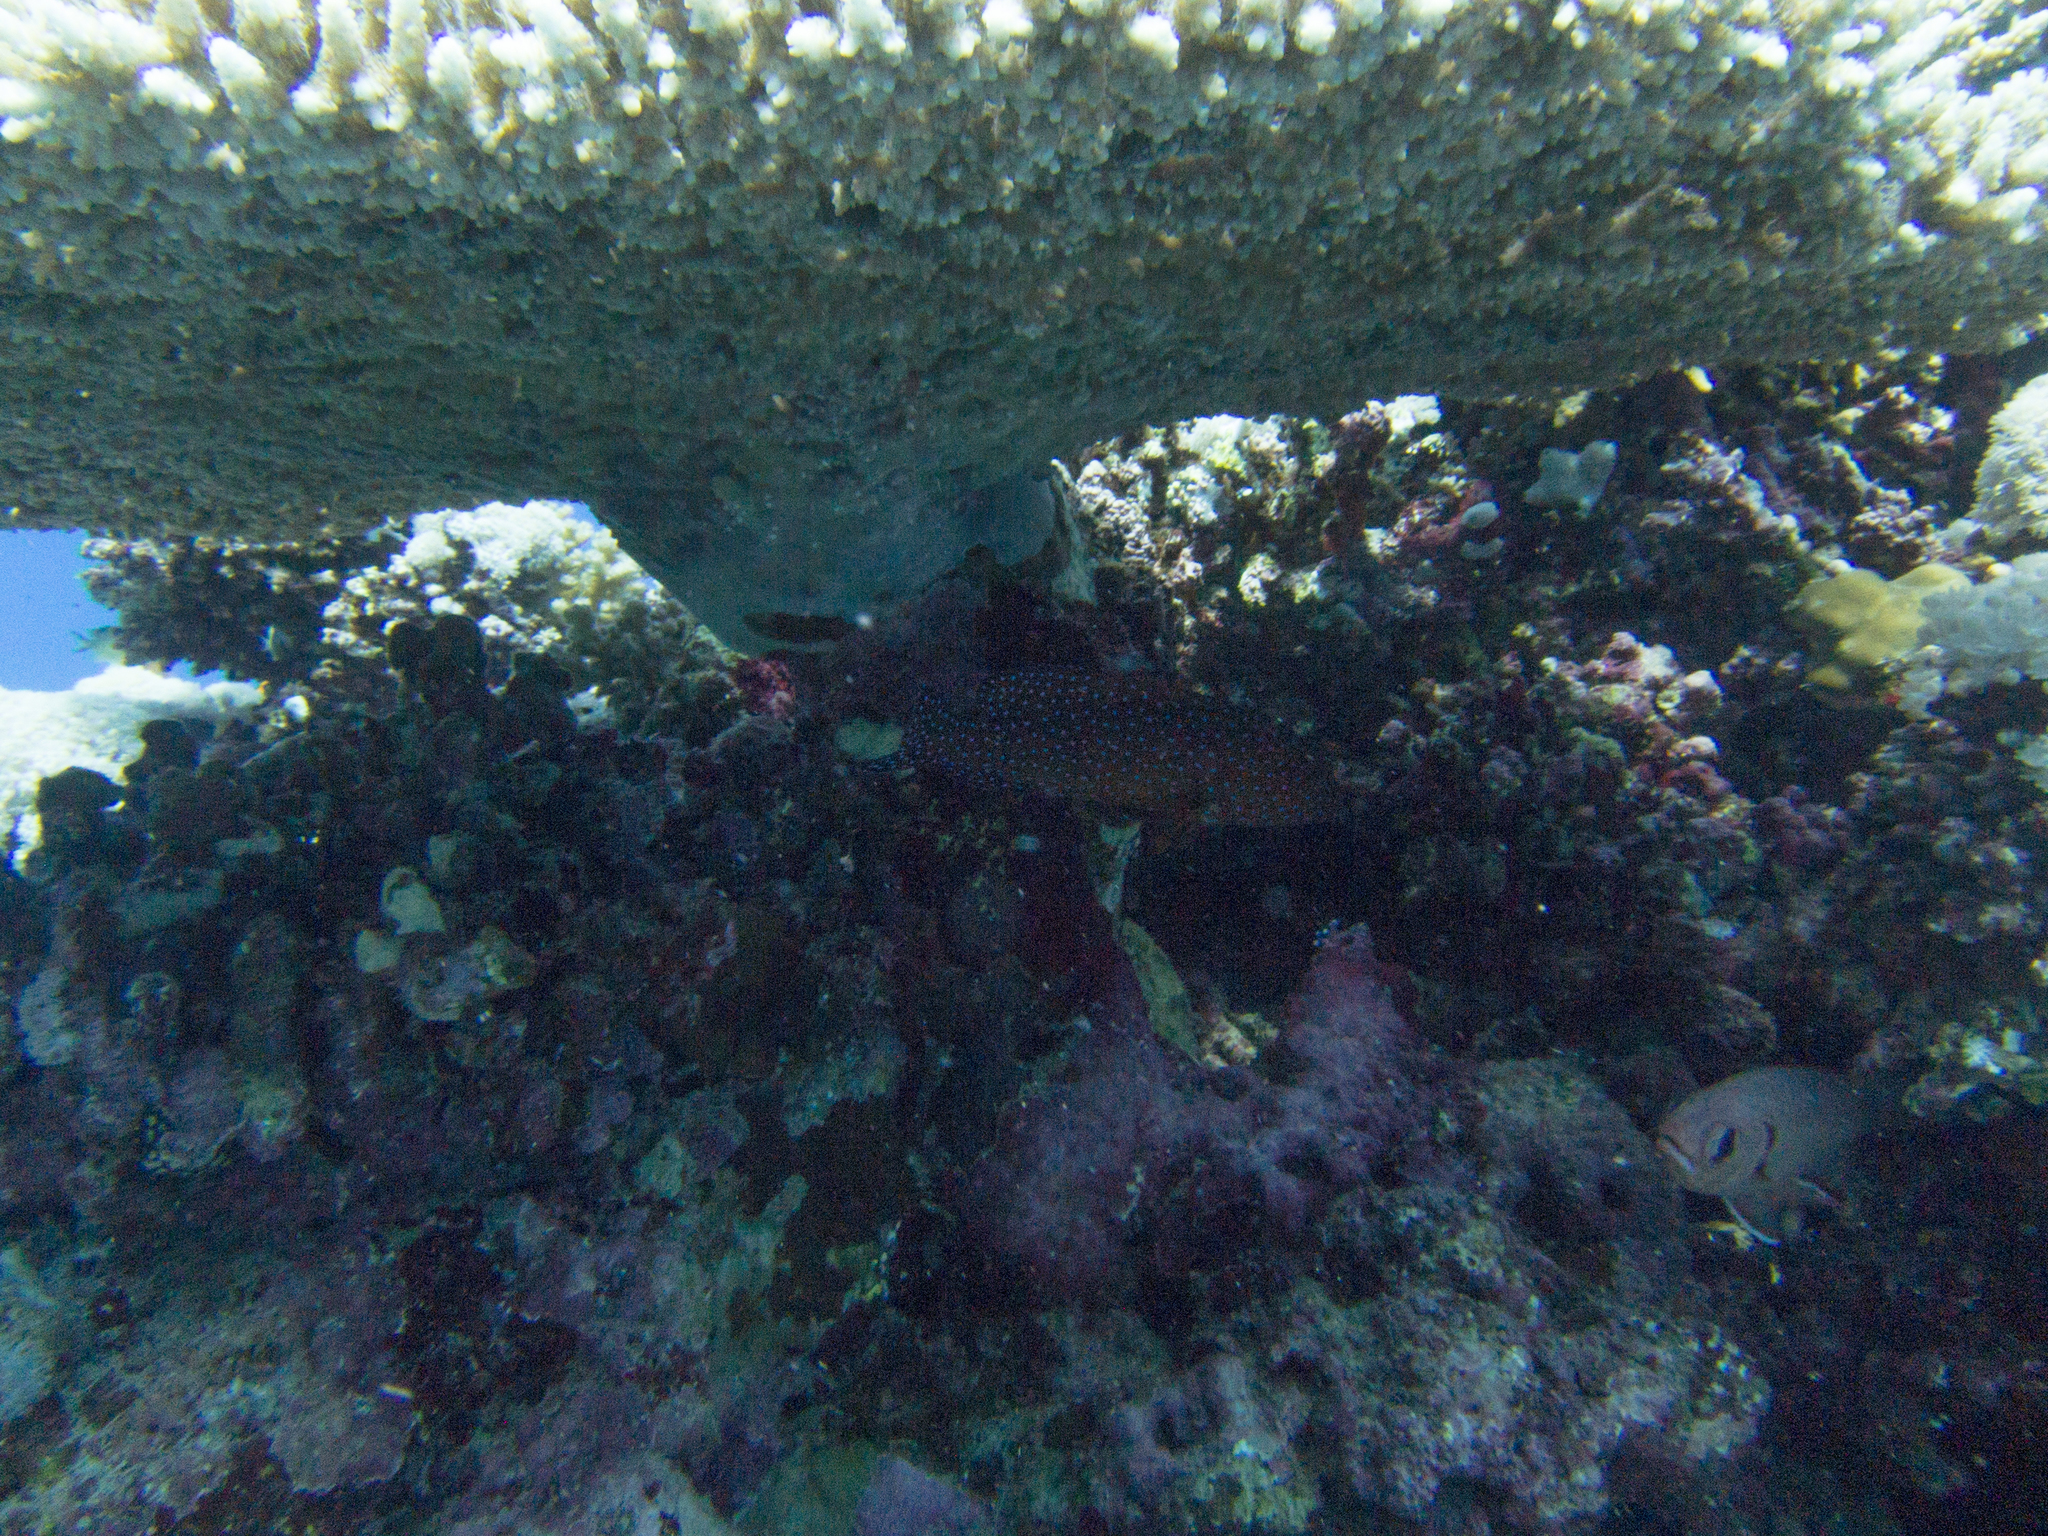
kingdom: Animalia
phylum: Chordata
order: Perciformes
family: Serranidae
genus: Cephalopholis
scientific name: Cephalopholis miniata
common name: Coral hind
